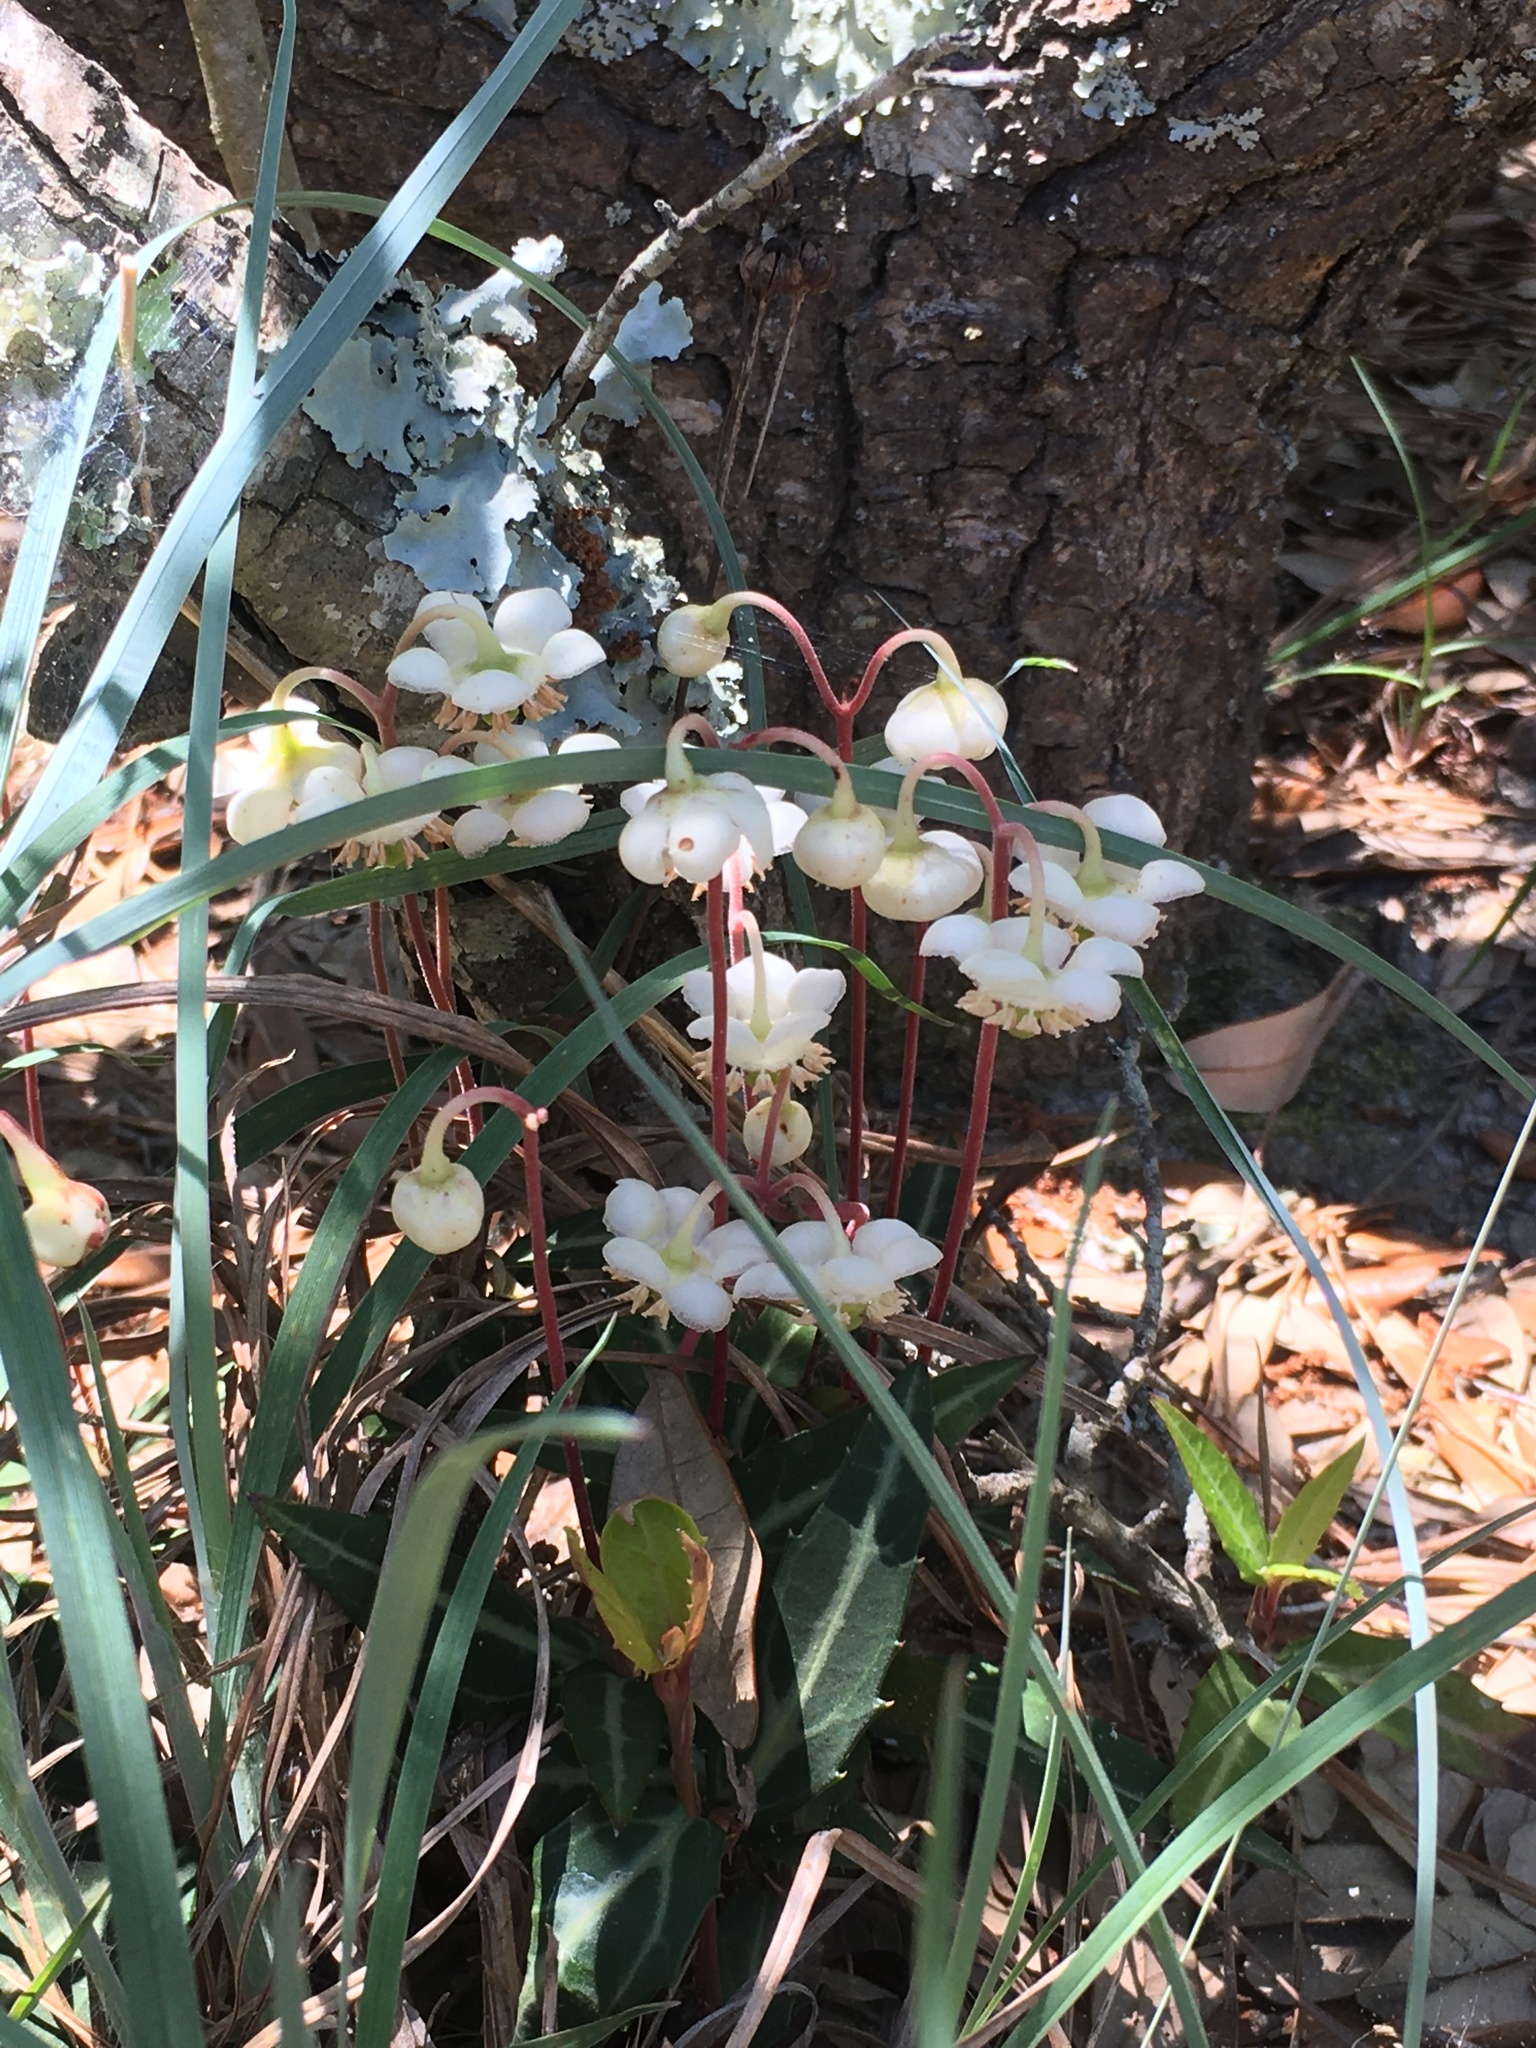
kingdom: Plantae
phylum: Tracheophyta
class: Magnoliopsida
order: Ericales
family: Ericaceae
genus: Chimaphila
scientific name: Chimaphila maculata
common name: Spotted pipsissewa
